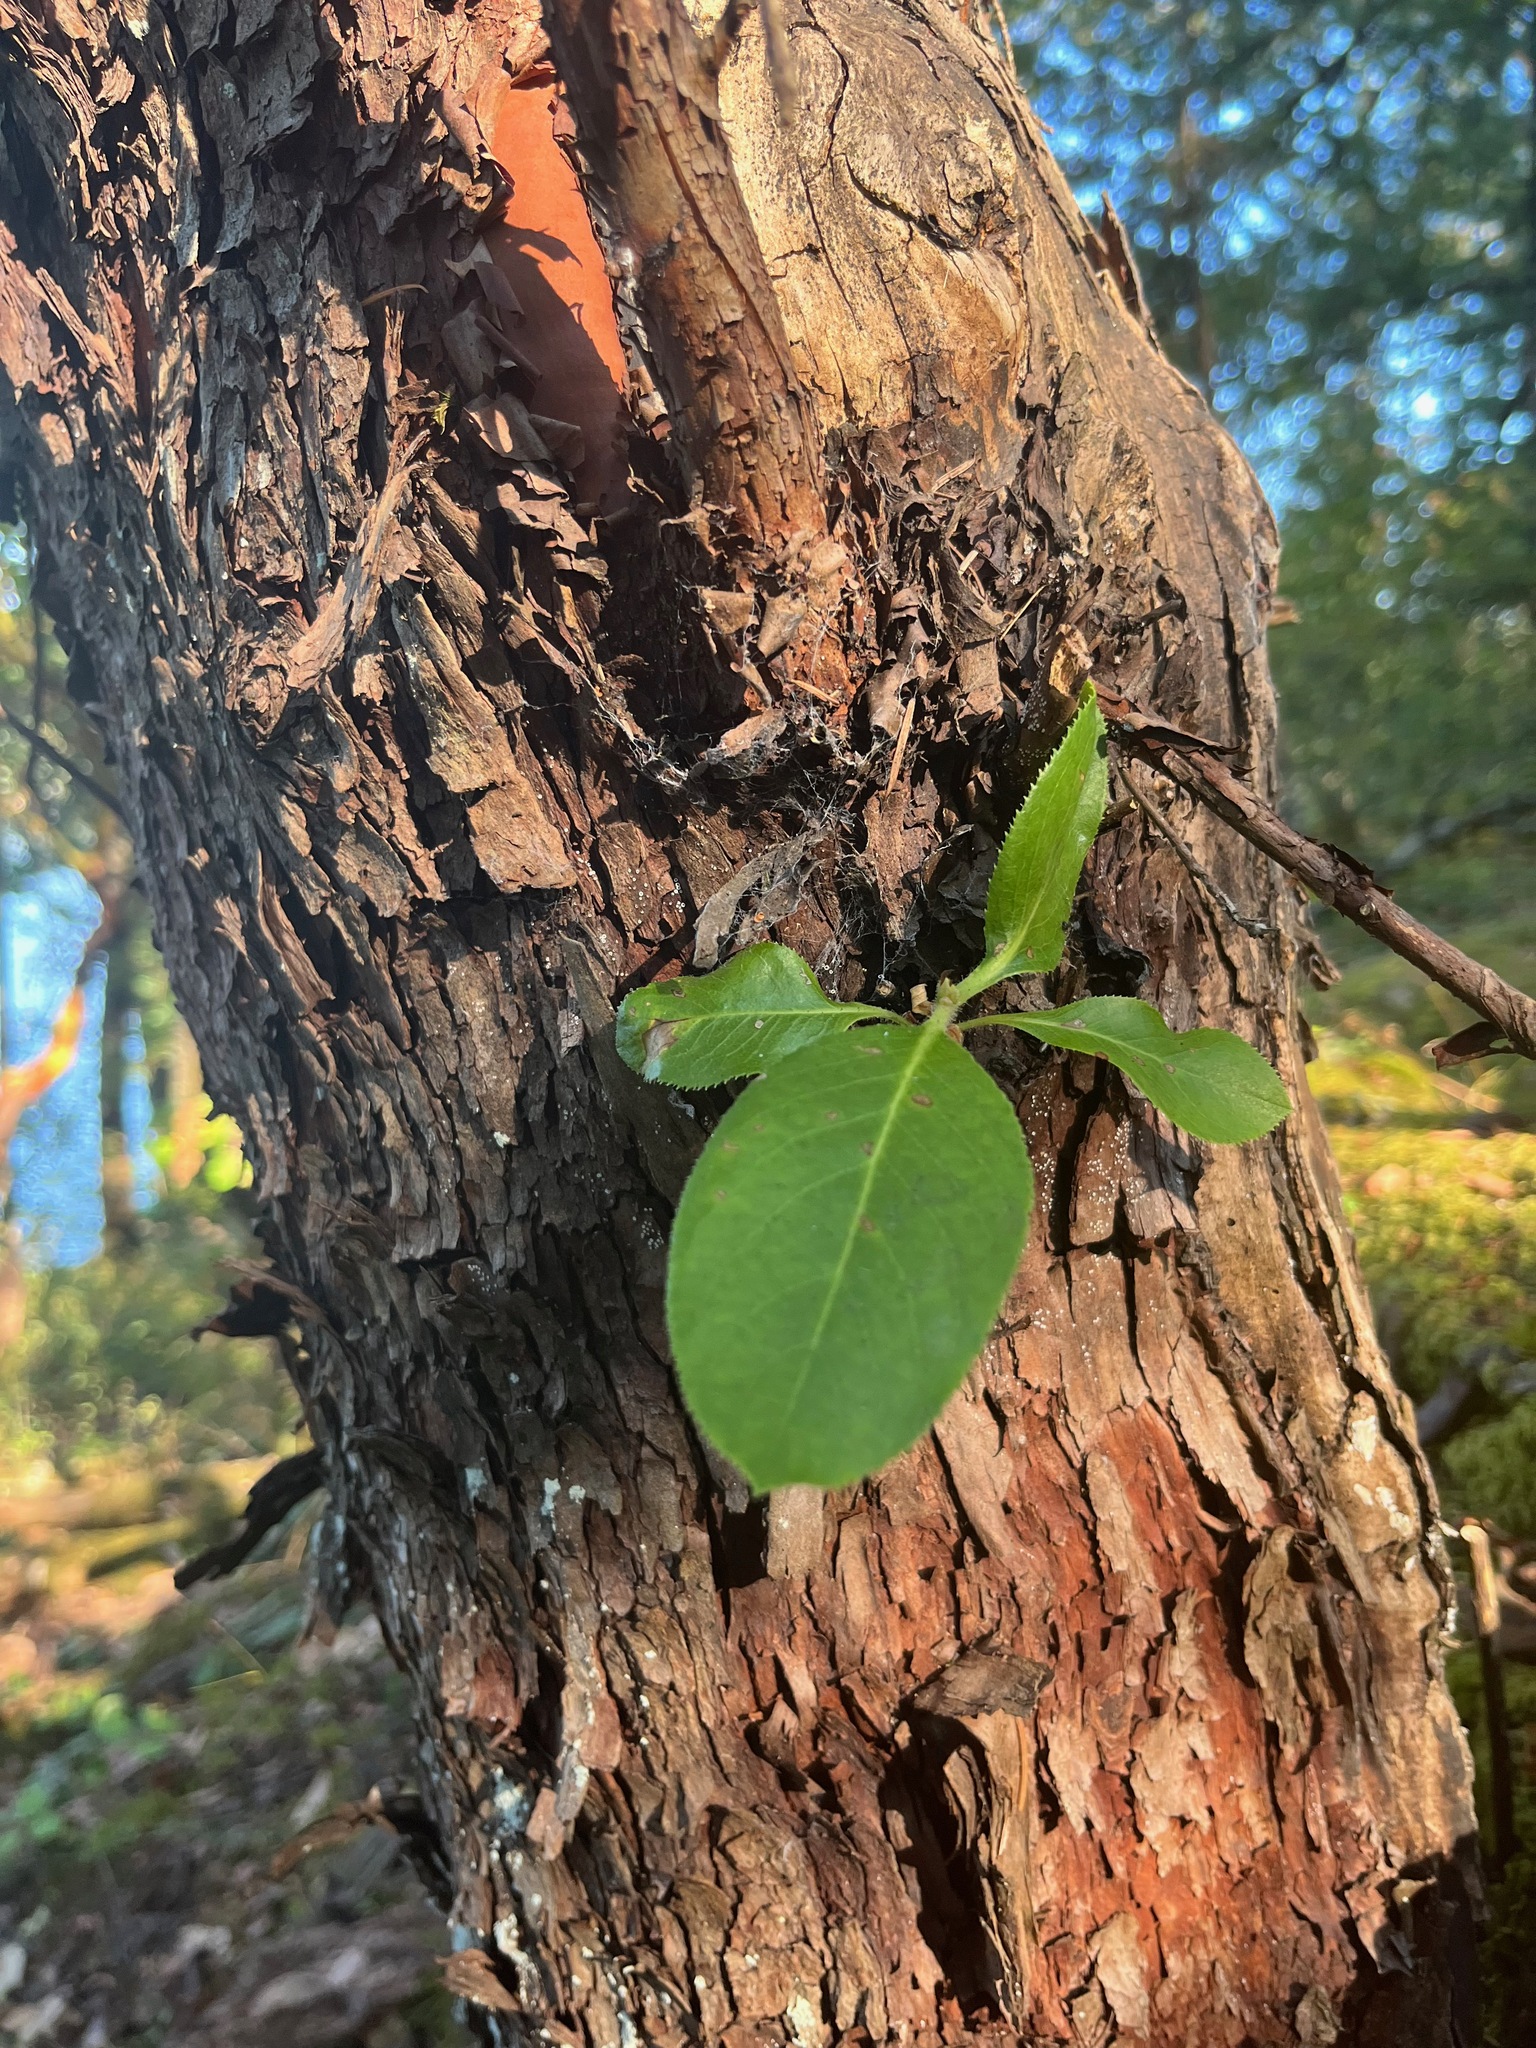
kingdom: Plantae
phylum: Tracheophyta
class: Magnoliopsida
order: Ericales
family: Ericaceae
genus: Arbutus
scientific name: Arbutus menziesii
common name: Pacific madrone
